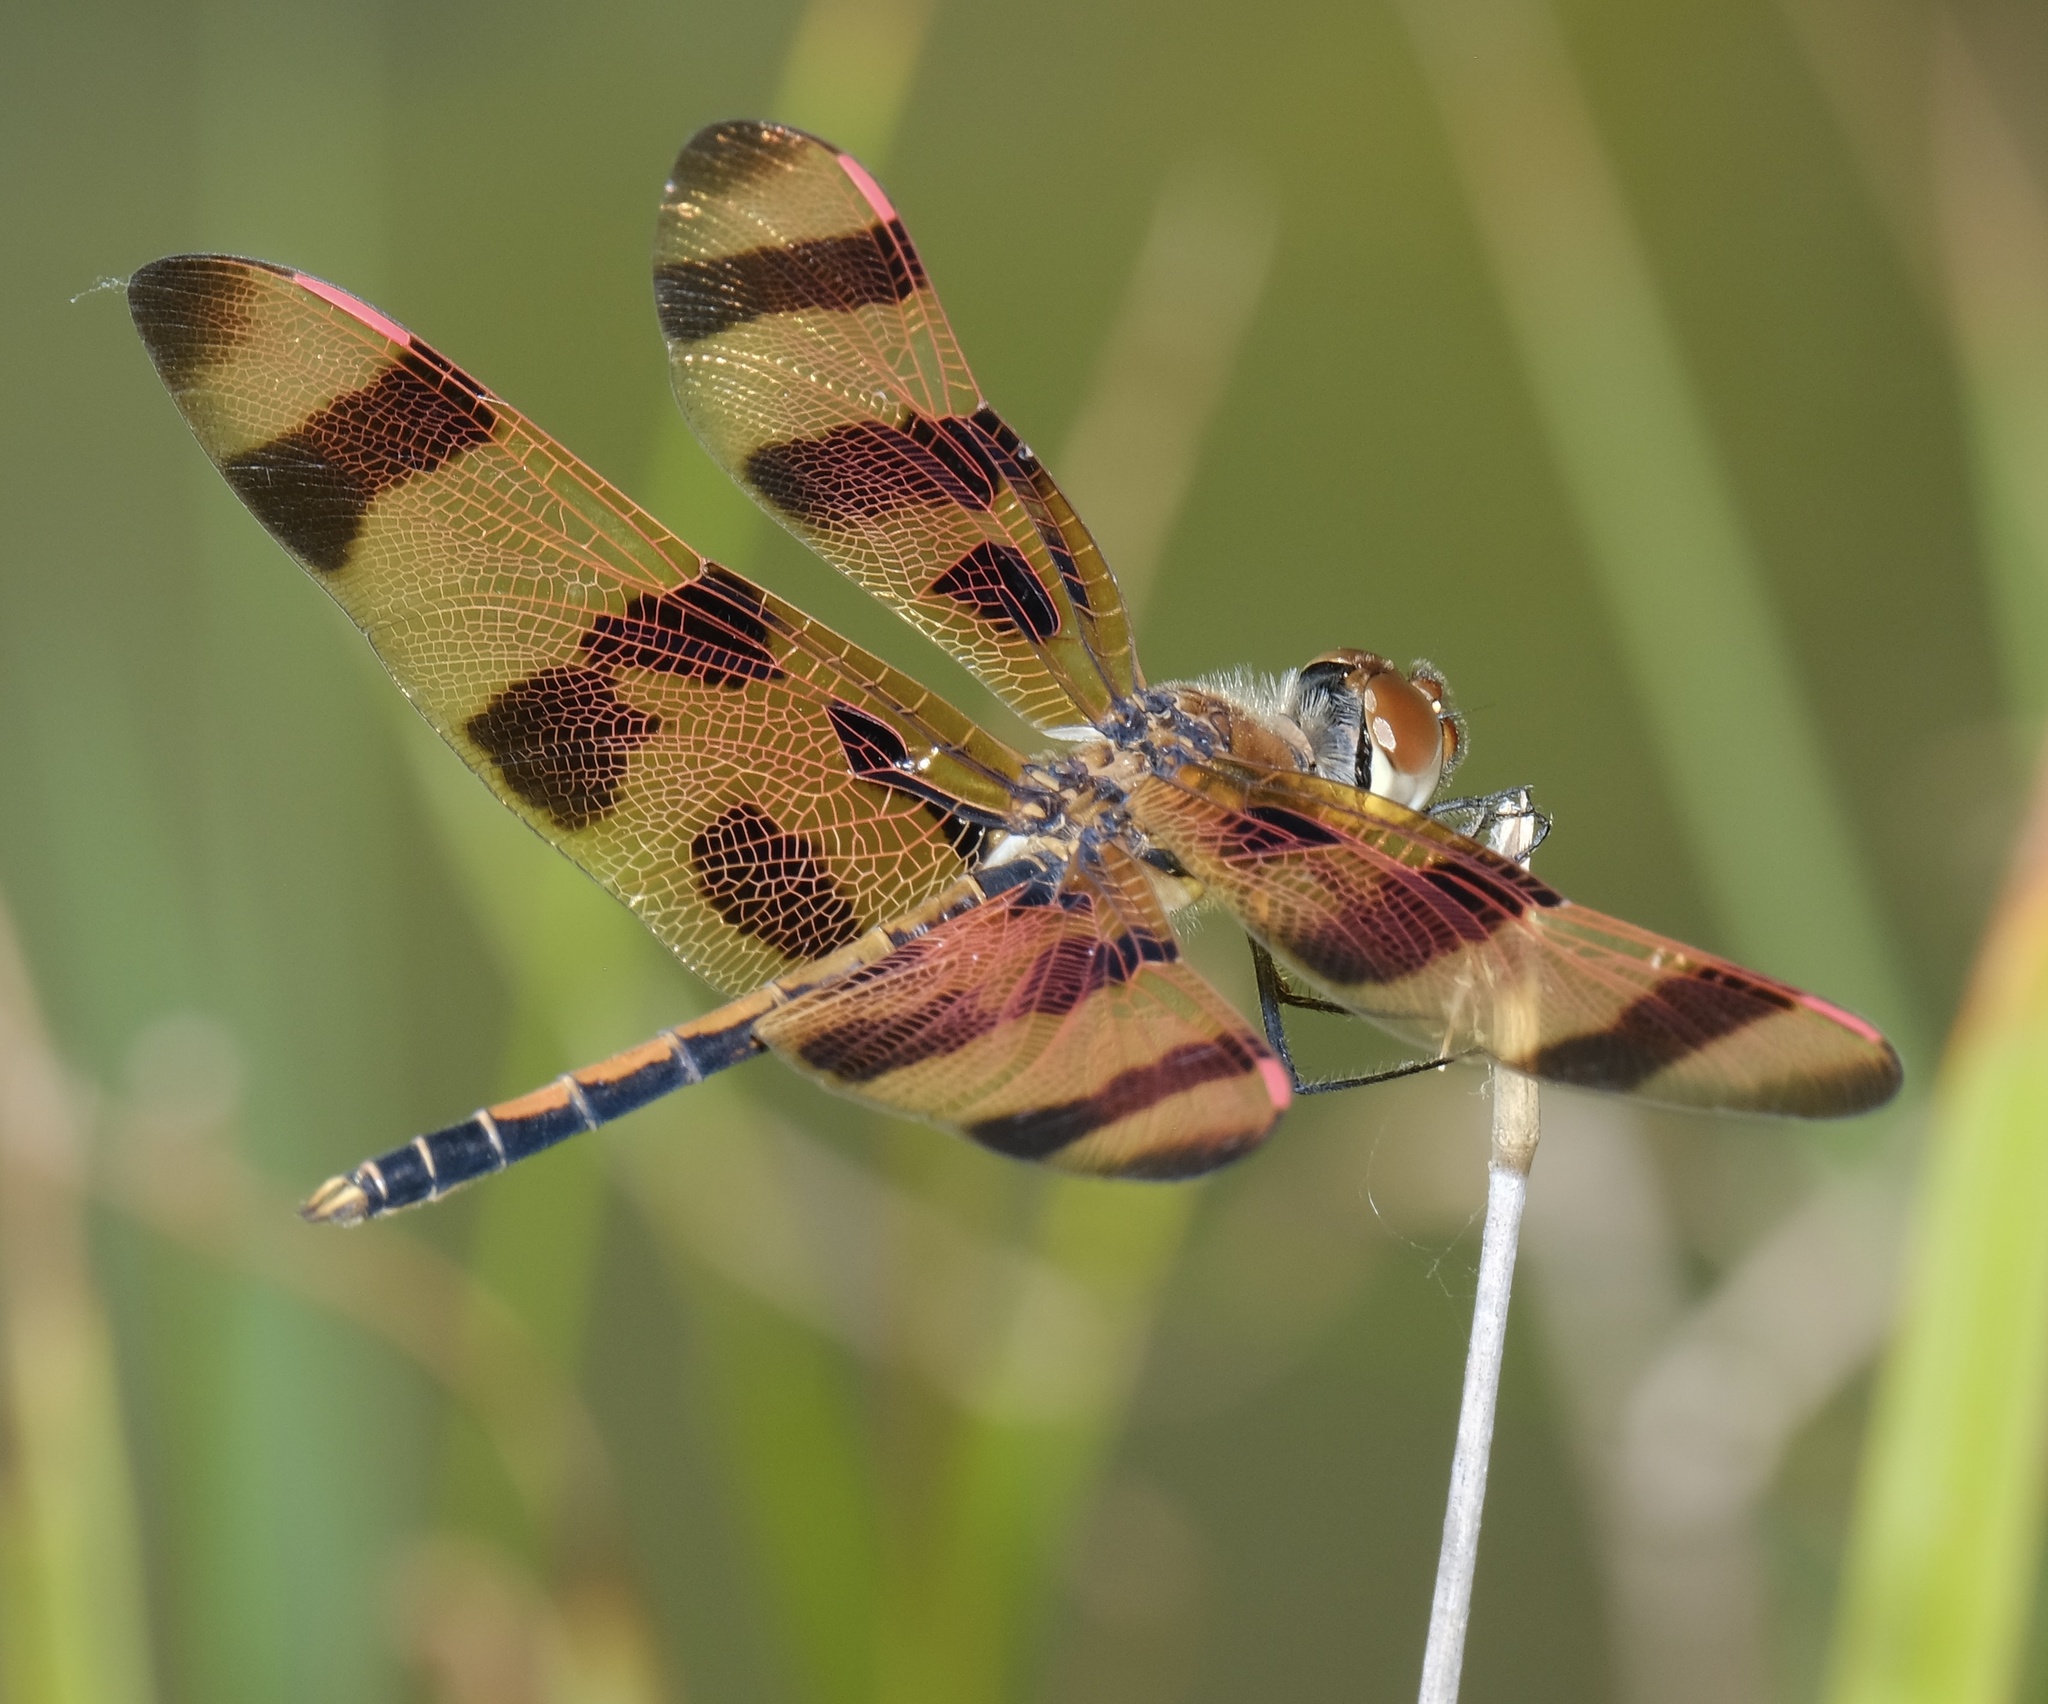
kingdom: Animalia
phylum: Arthropoda
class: Insecta
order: Odonata
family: Libellulidae
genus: Celithemis
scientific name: Celithemis eponina
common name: Halloween pennant
